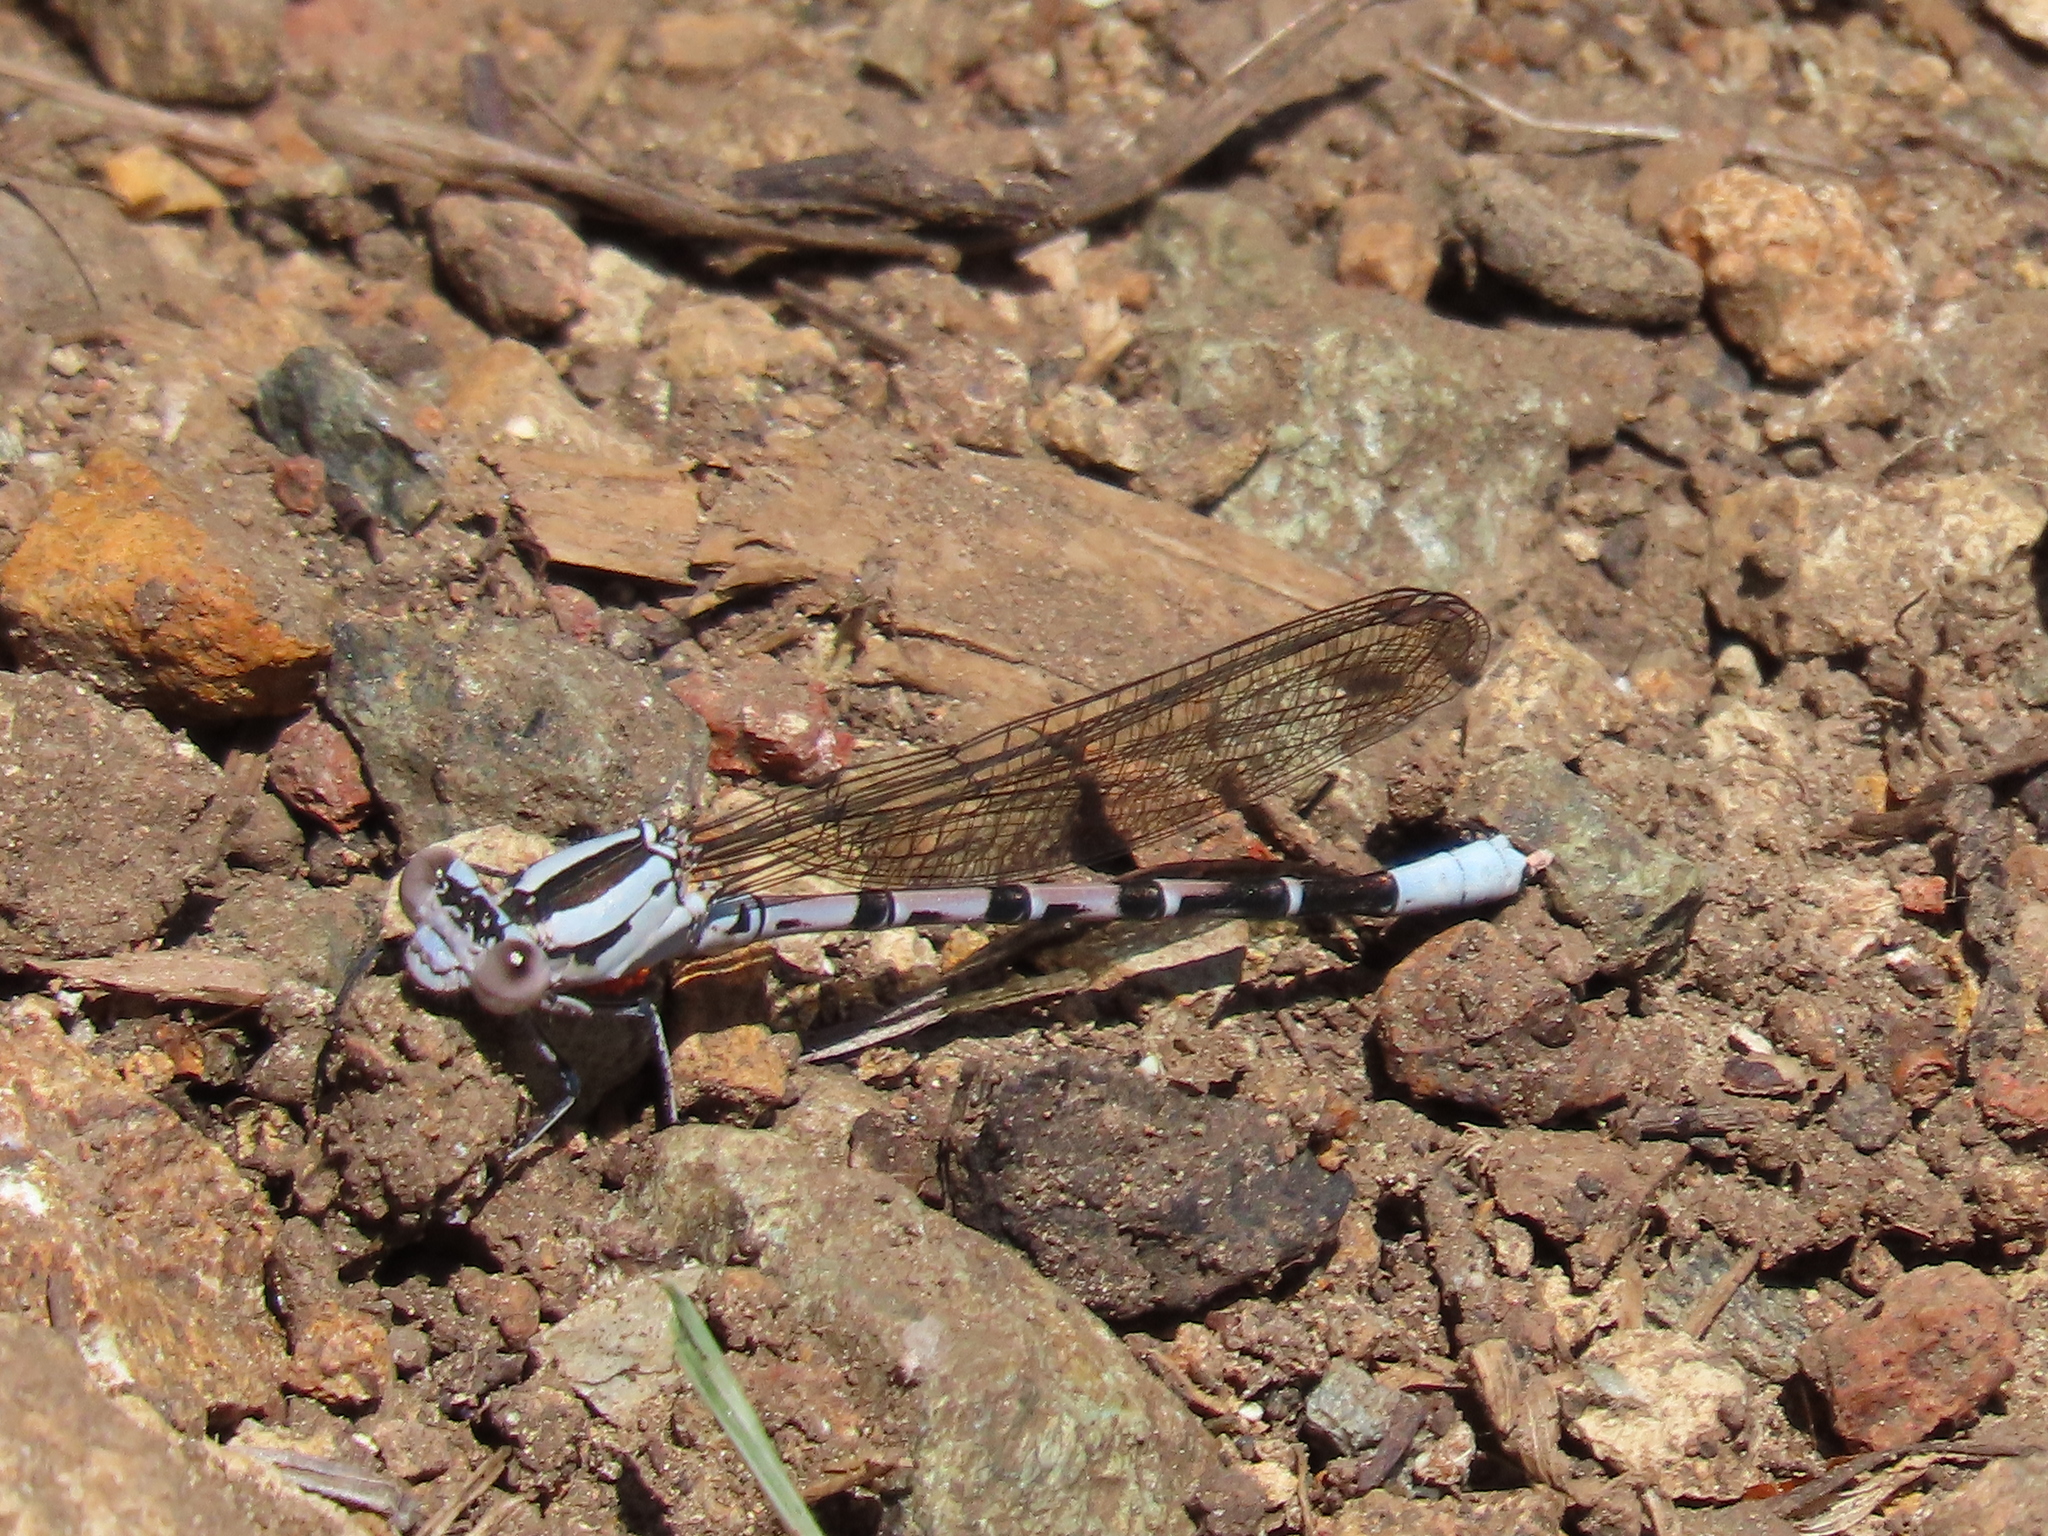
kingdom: Animalia
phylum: Arthropoda
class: Insecta
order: Odonata
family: Coenagrionidae
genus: Argia
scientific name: Argia vivida
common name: Vivid dancer
